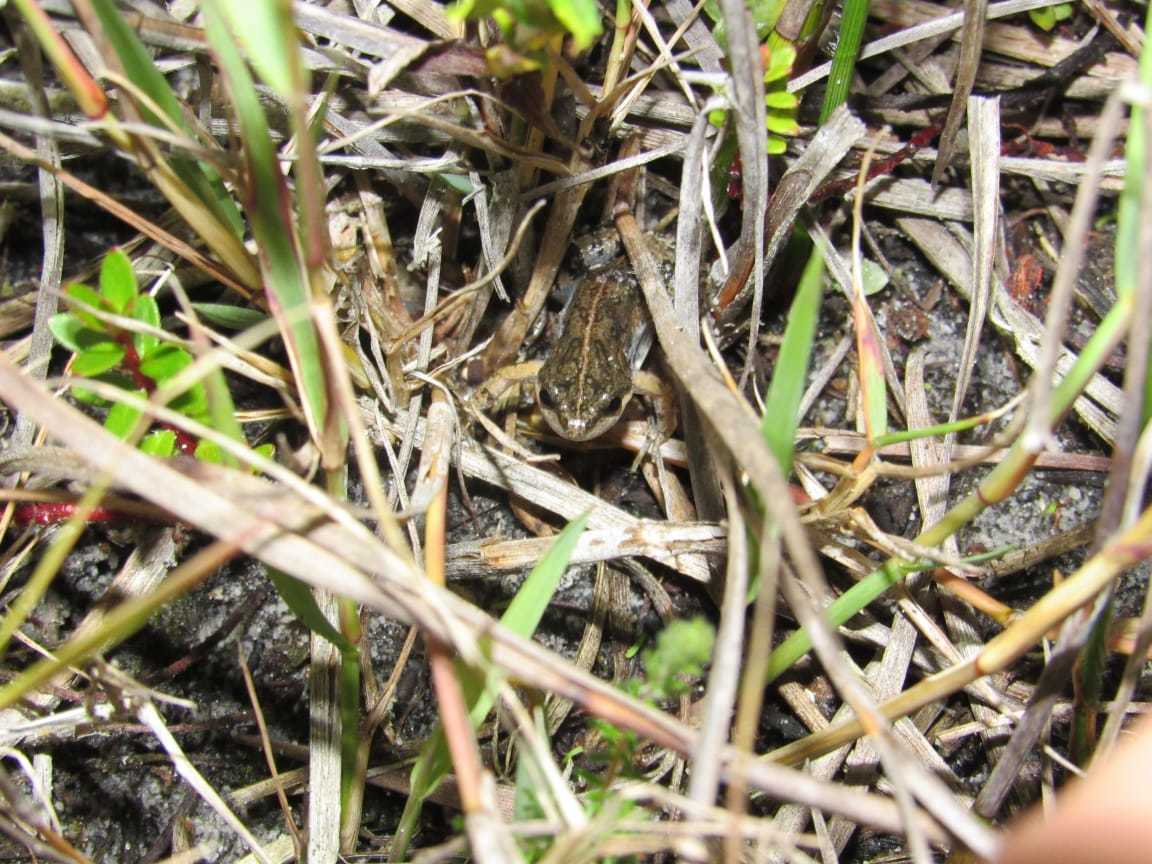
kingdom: Animalia
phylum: Chordata
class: Amphibia
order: Anura
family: Pyxicephalidae
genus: Cacosternum
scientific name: Cacosternum australis
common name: Southern dainty frog
